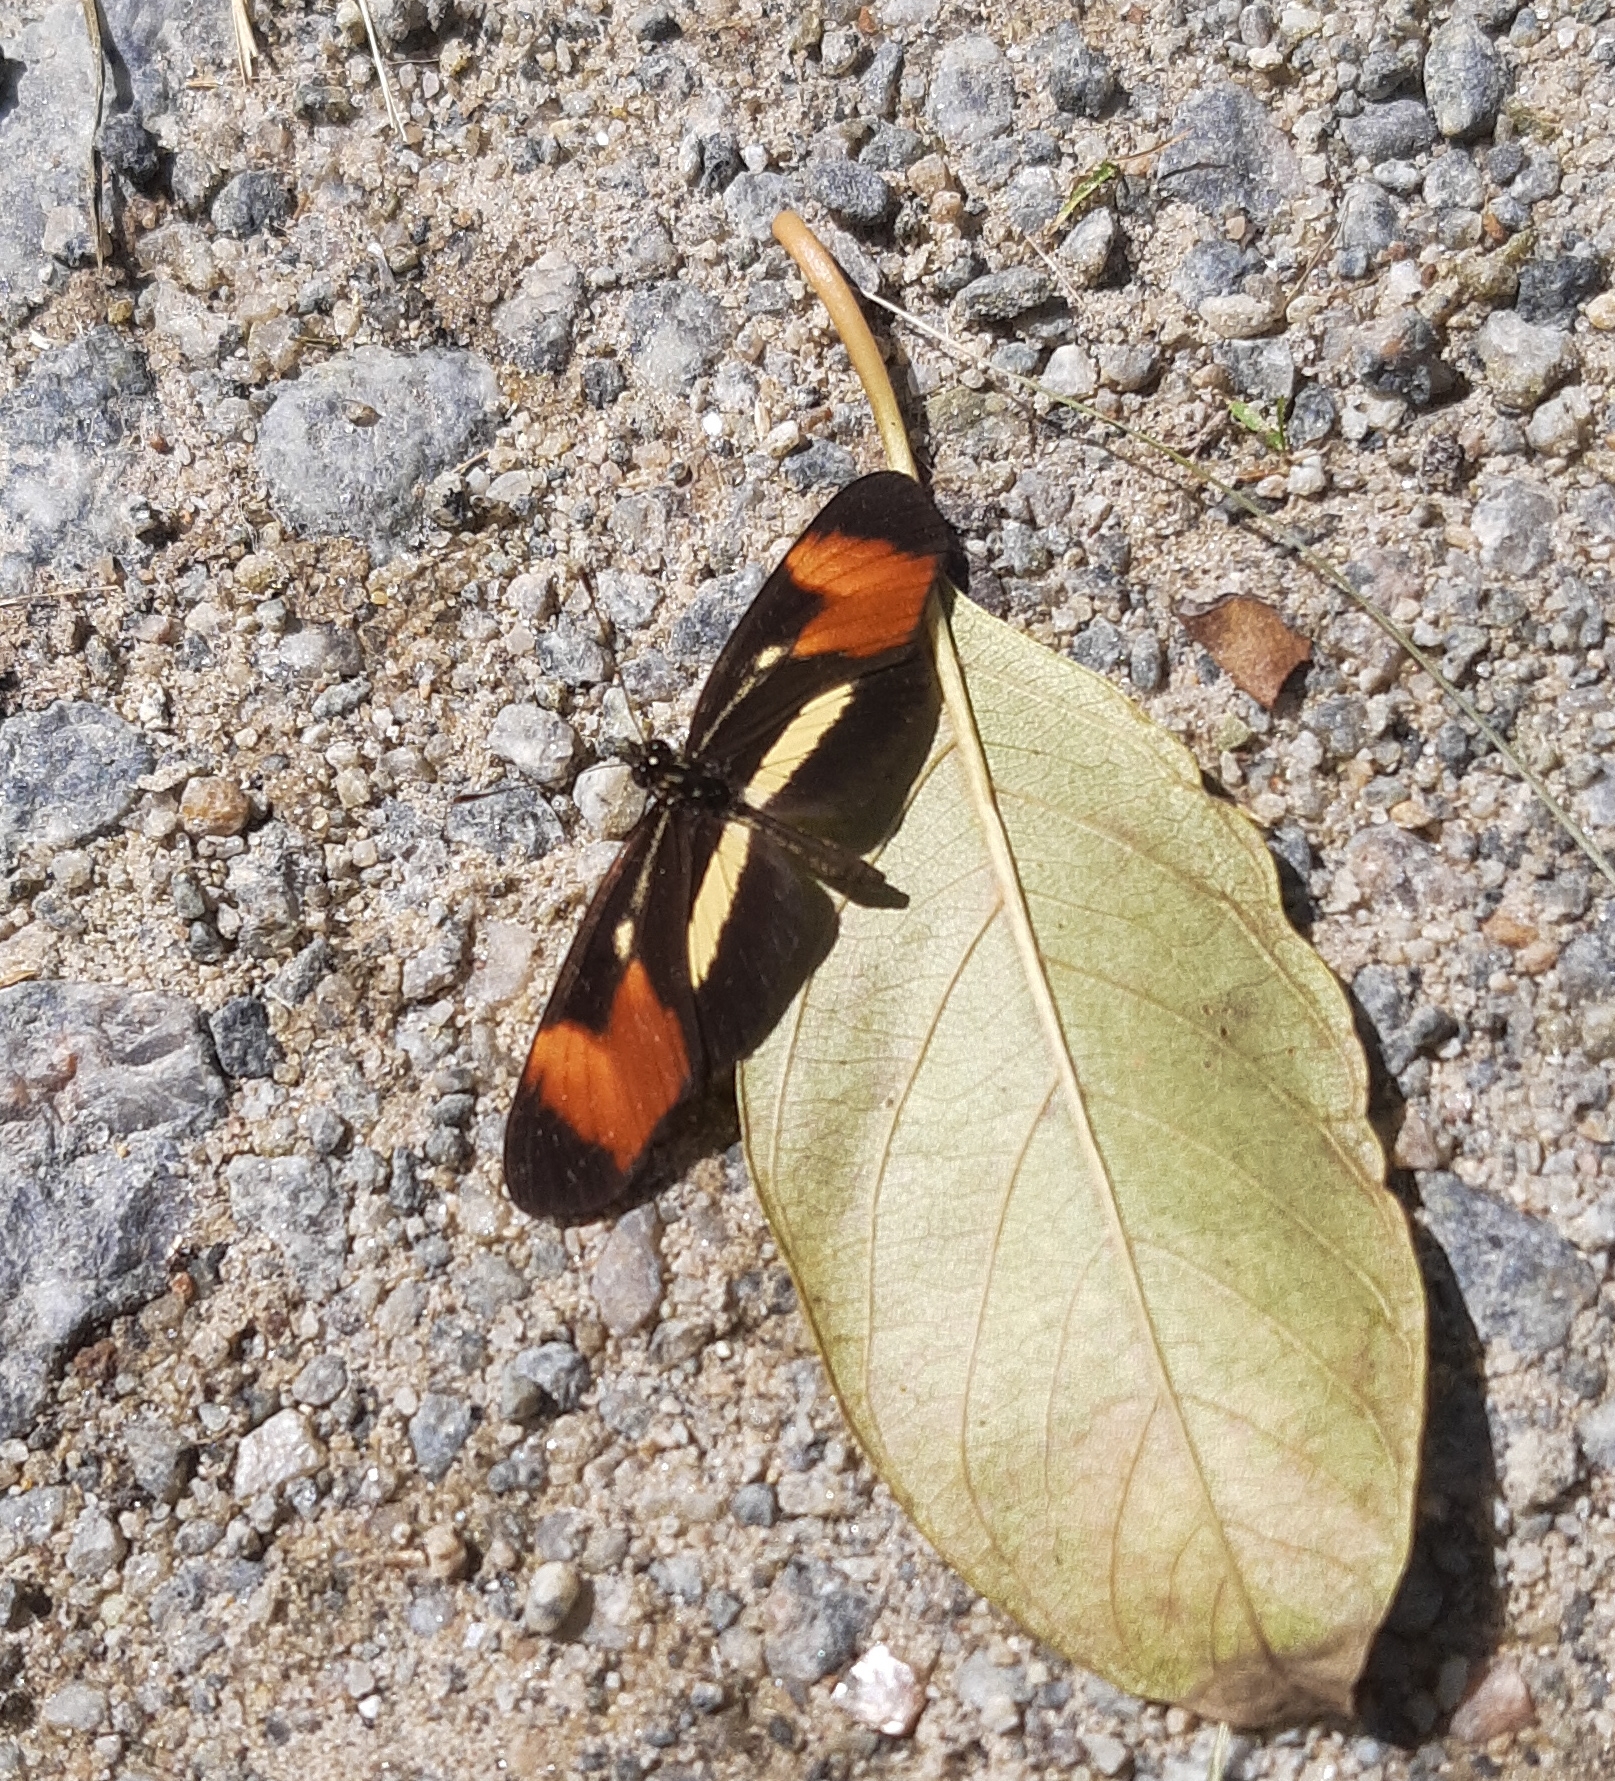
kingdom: Animalia
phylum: Arthropoda
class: Insecta
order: Lepidoptera
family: Nymphalidae
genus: Eresia
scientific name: Eresia lansdorfi
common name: Lansdorf's crescent
